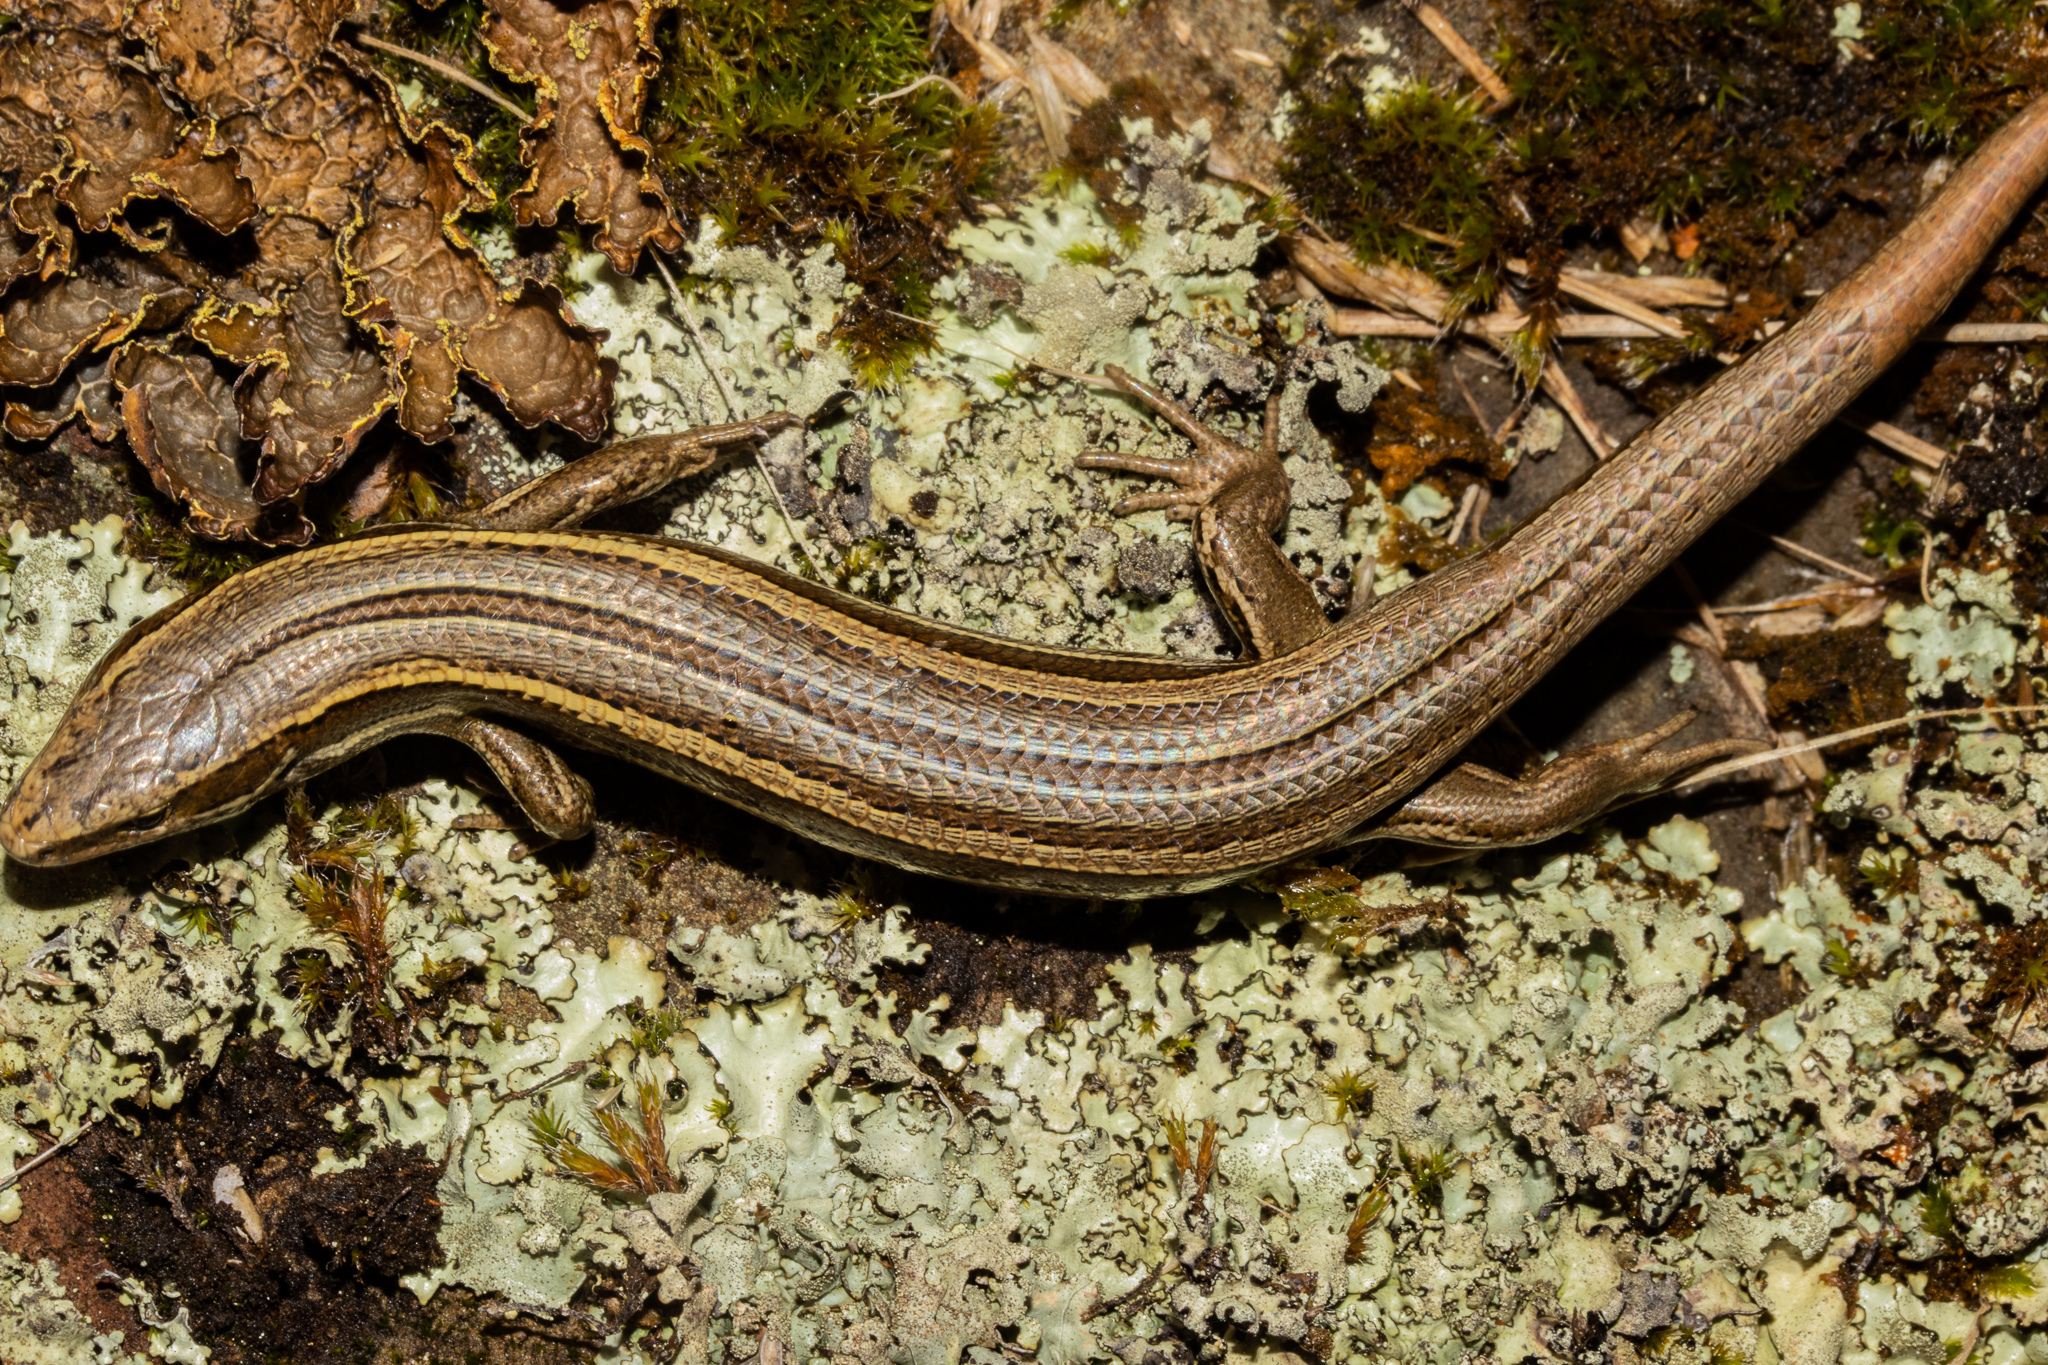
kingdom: Animalia
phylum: Chordata
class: Squamata
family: Scincidae
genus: Oligosoma
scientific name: Oligosoma polychroma
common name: Common new zealand skink
